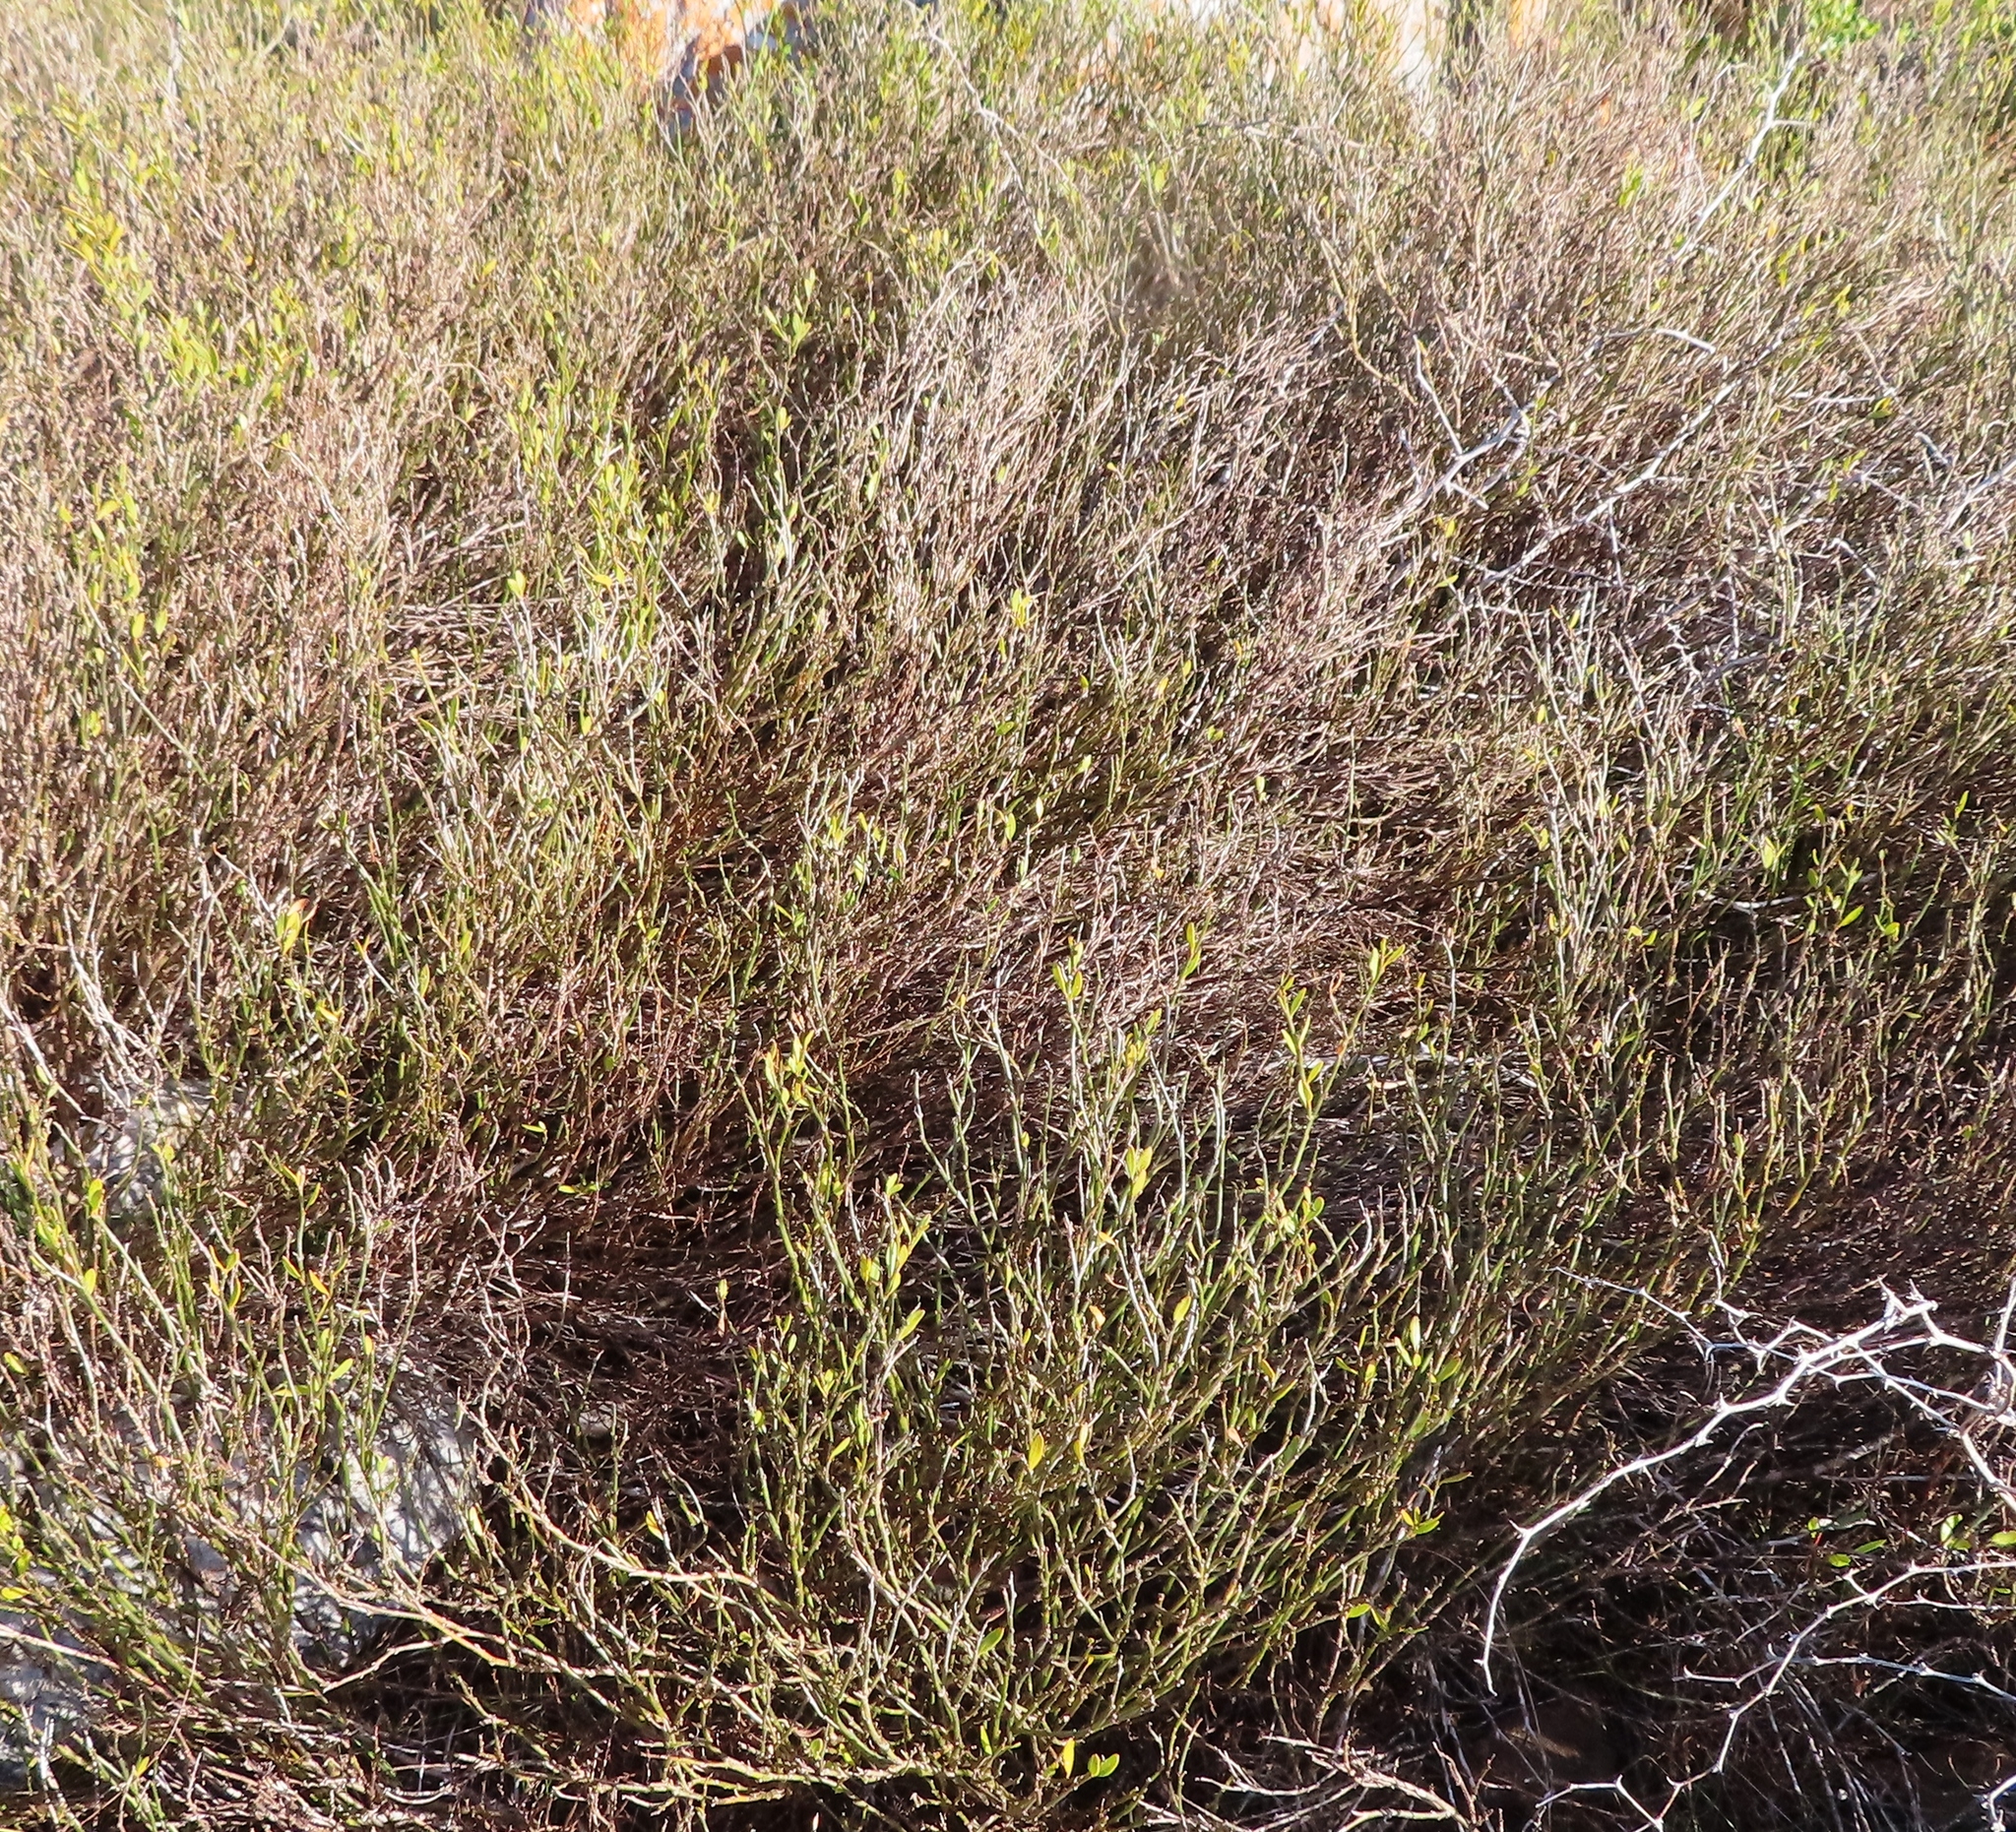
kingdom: Plantae
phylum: Tracheophyta
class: Magnoliopsida
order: Solanales
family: Montiniaceae
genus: Montinia
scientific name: Montinia caryophyllacea
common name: Wild clove-bush
